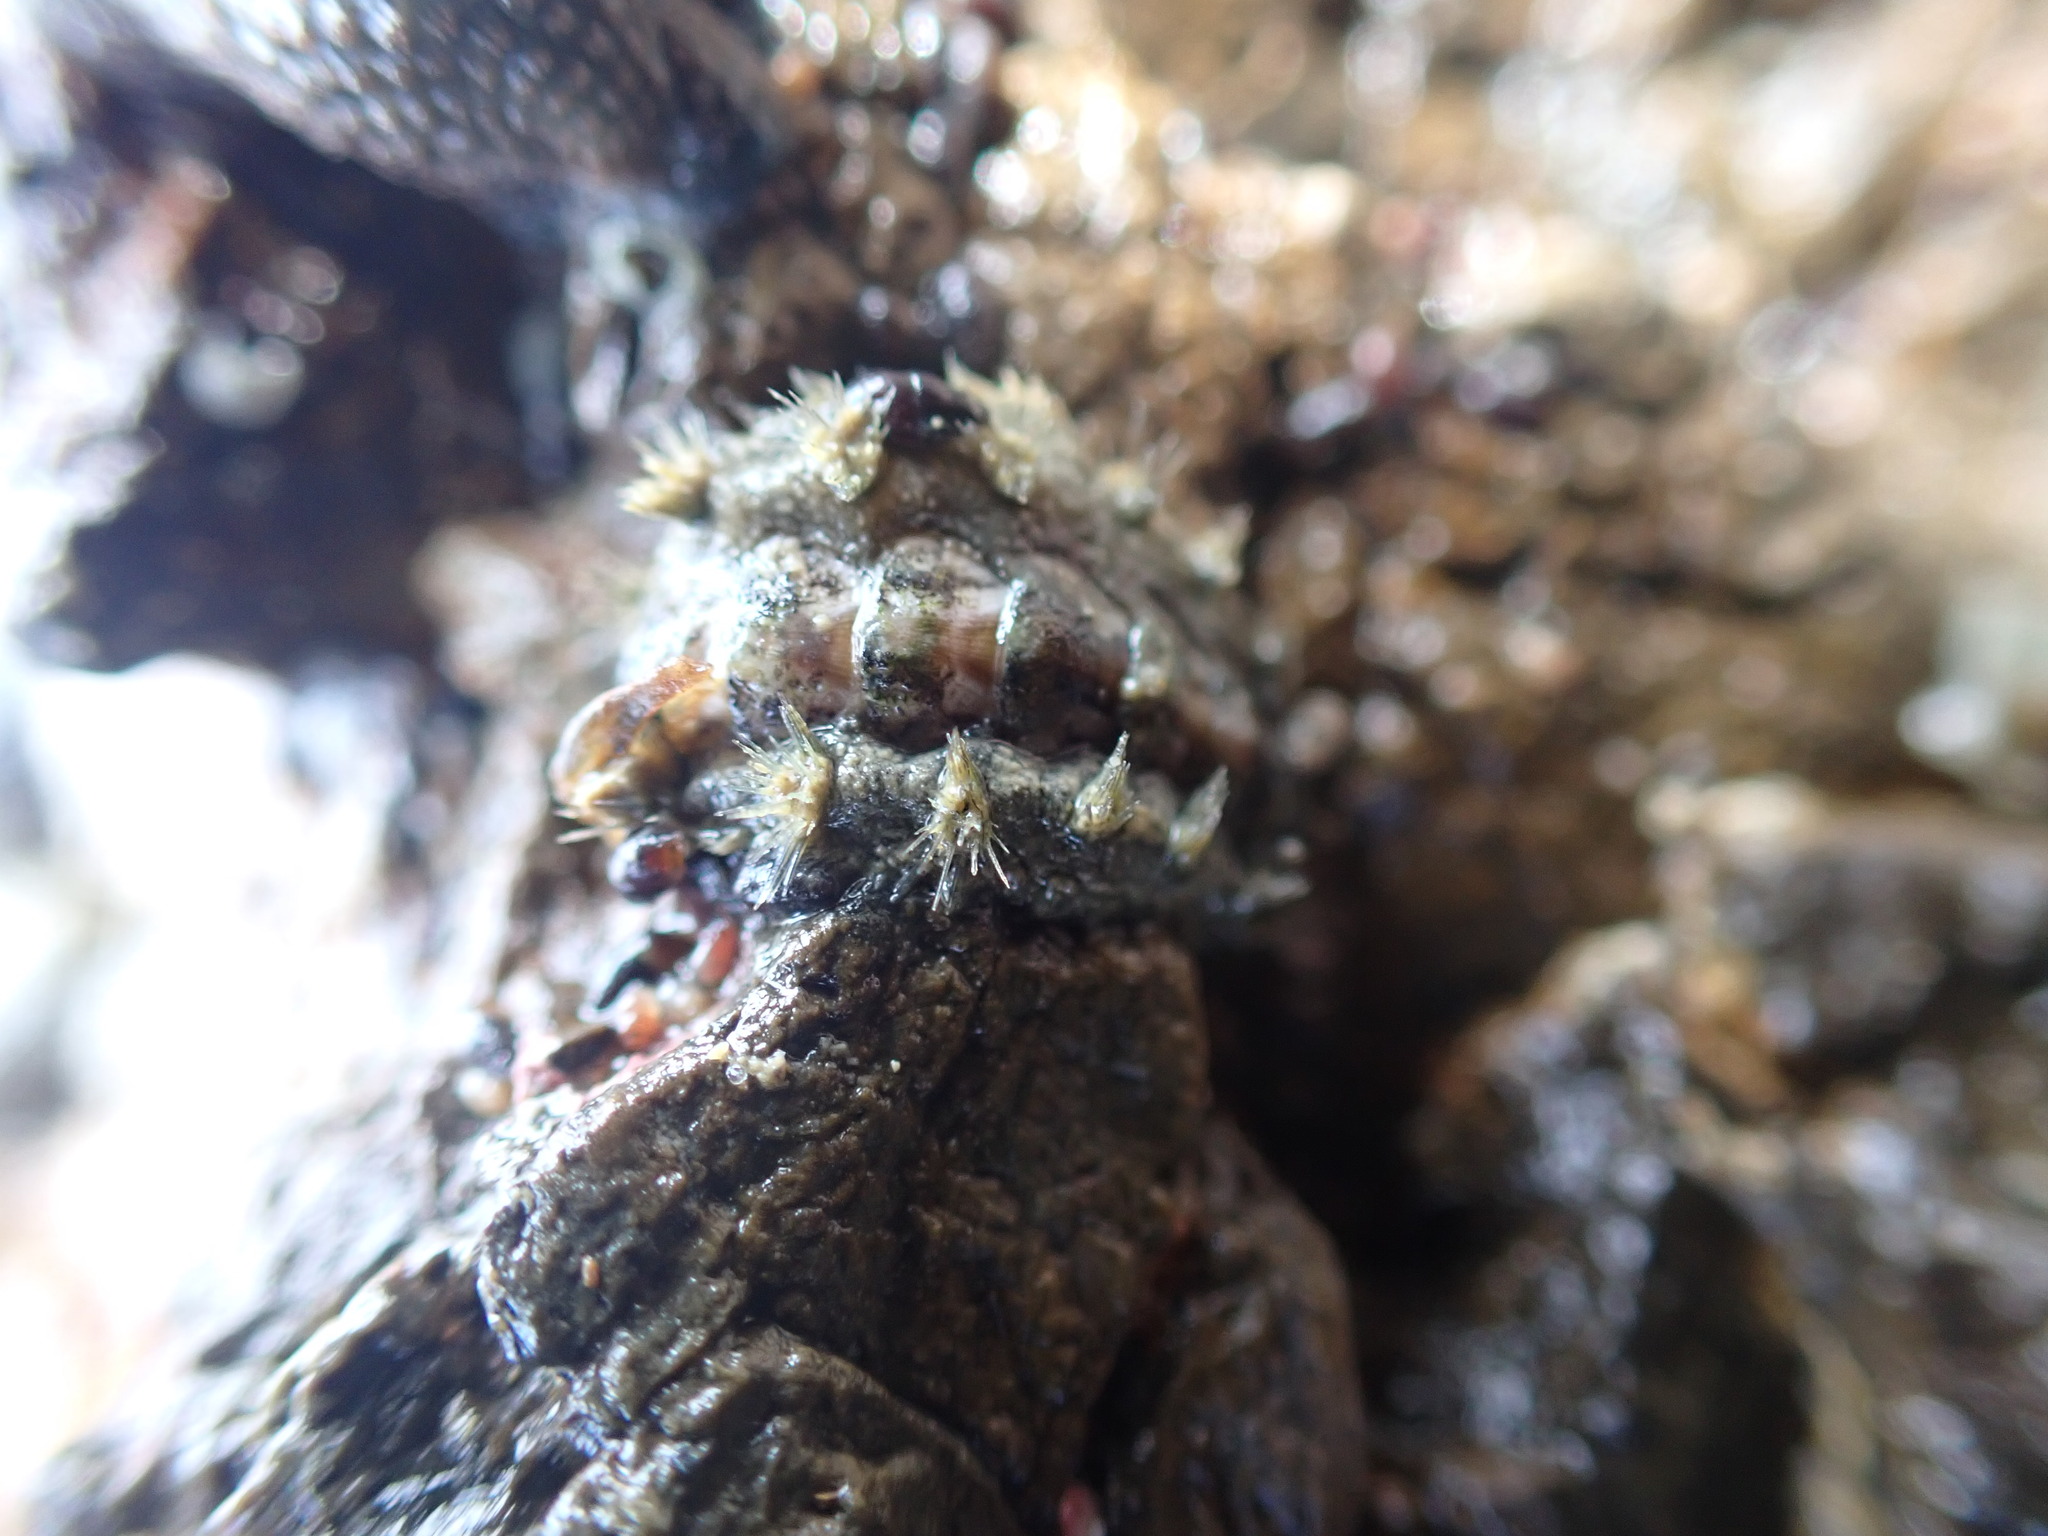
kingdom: Animalia
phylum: Mollusca
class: Polyplacophora
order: Chitonida
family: Acanthochitonidae
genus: Acanthochitona
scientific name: Acanthochitona zelandica
